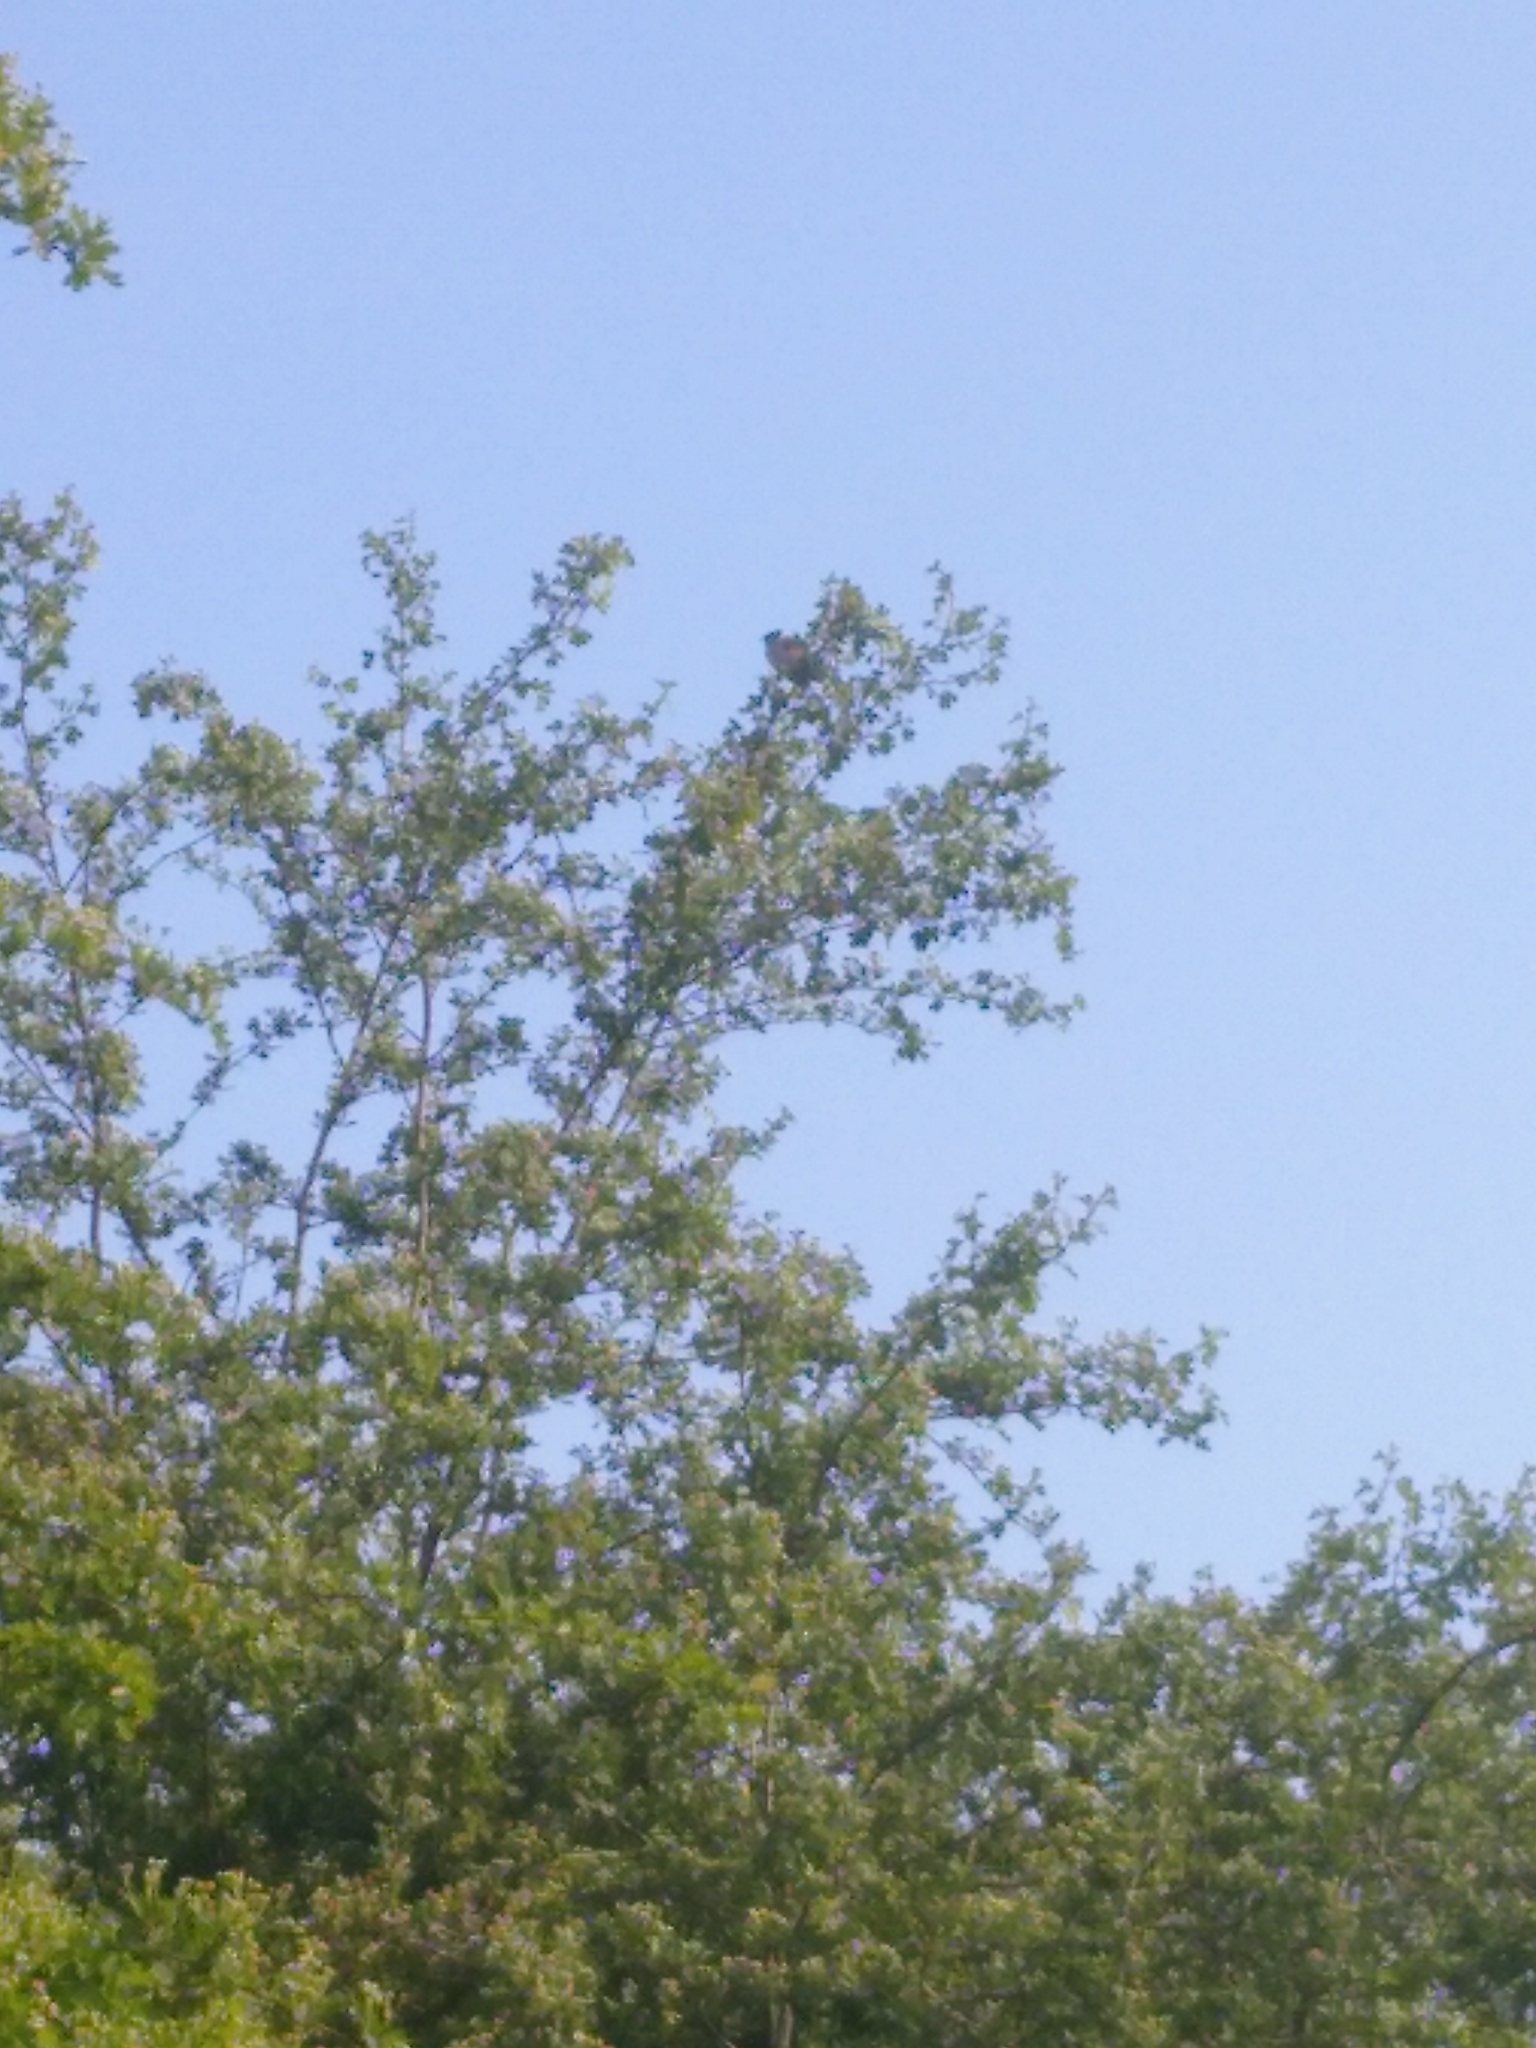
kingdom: Animalia
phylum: Chordata
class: Aves
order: Passeriformes
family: Emberizidae
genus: Emberiza
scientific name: Emberiza schoeniclus
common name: Reed bunting
